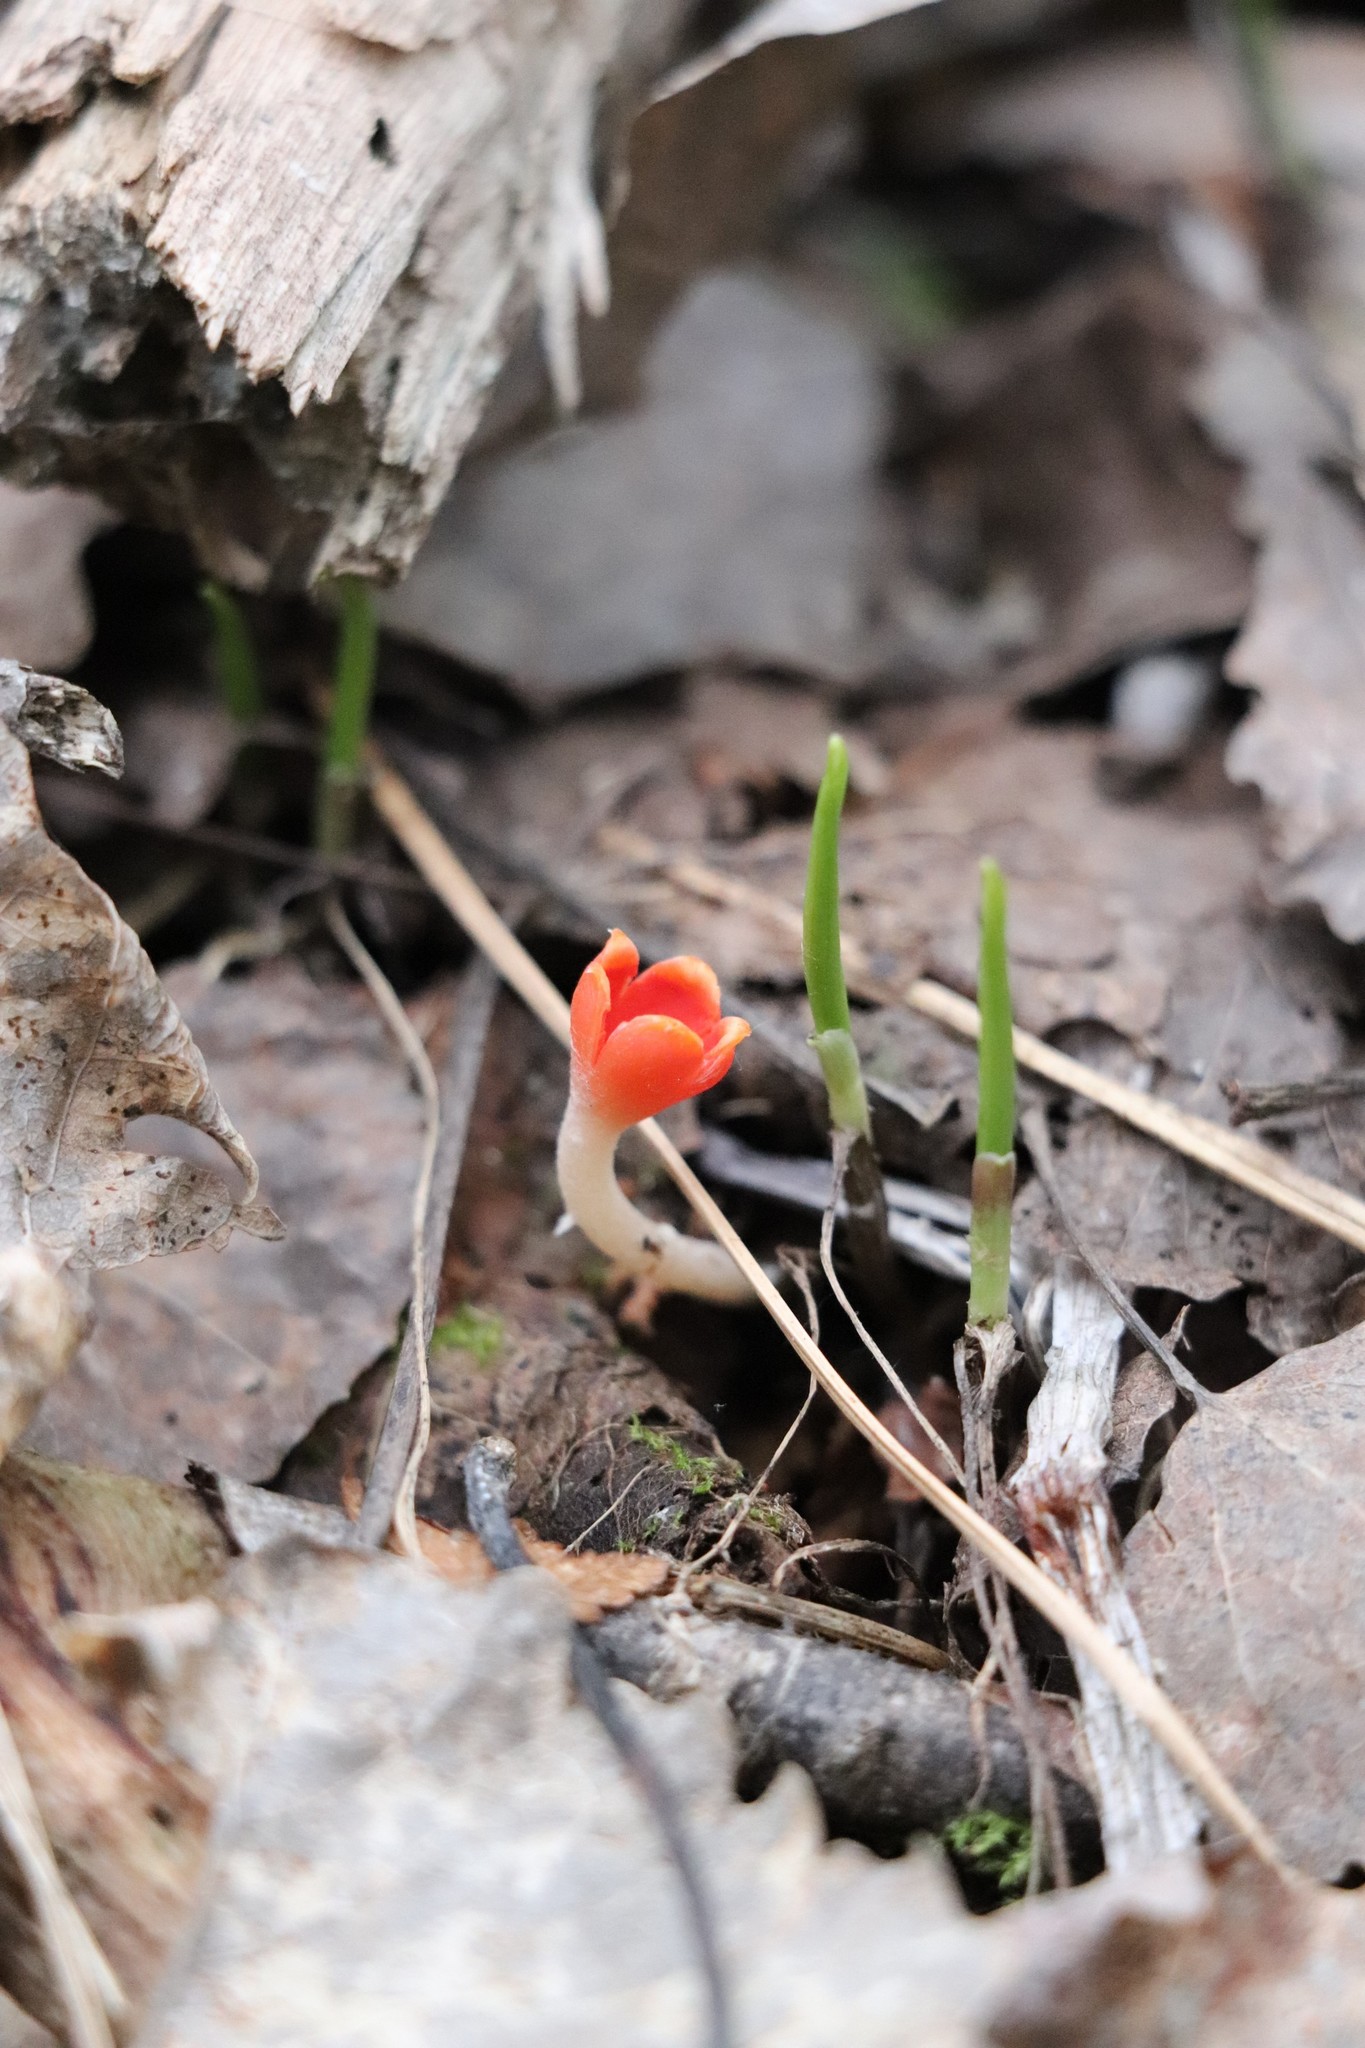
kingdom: Fungi
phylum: Ascomycota
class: Pezizomycetes
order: Pezizales
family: Sarcoscyphaceae
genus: Microstoma
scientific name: Microstoma protractum
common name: Rosy goblet
